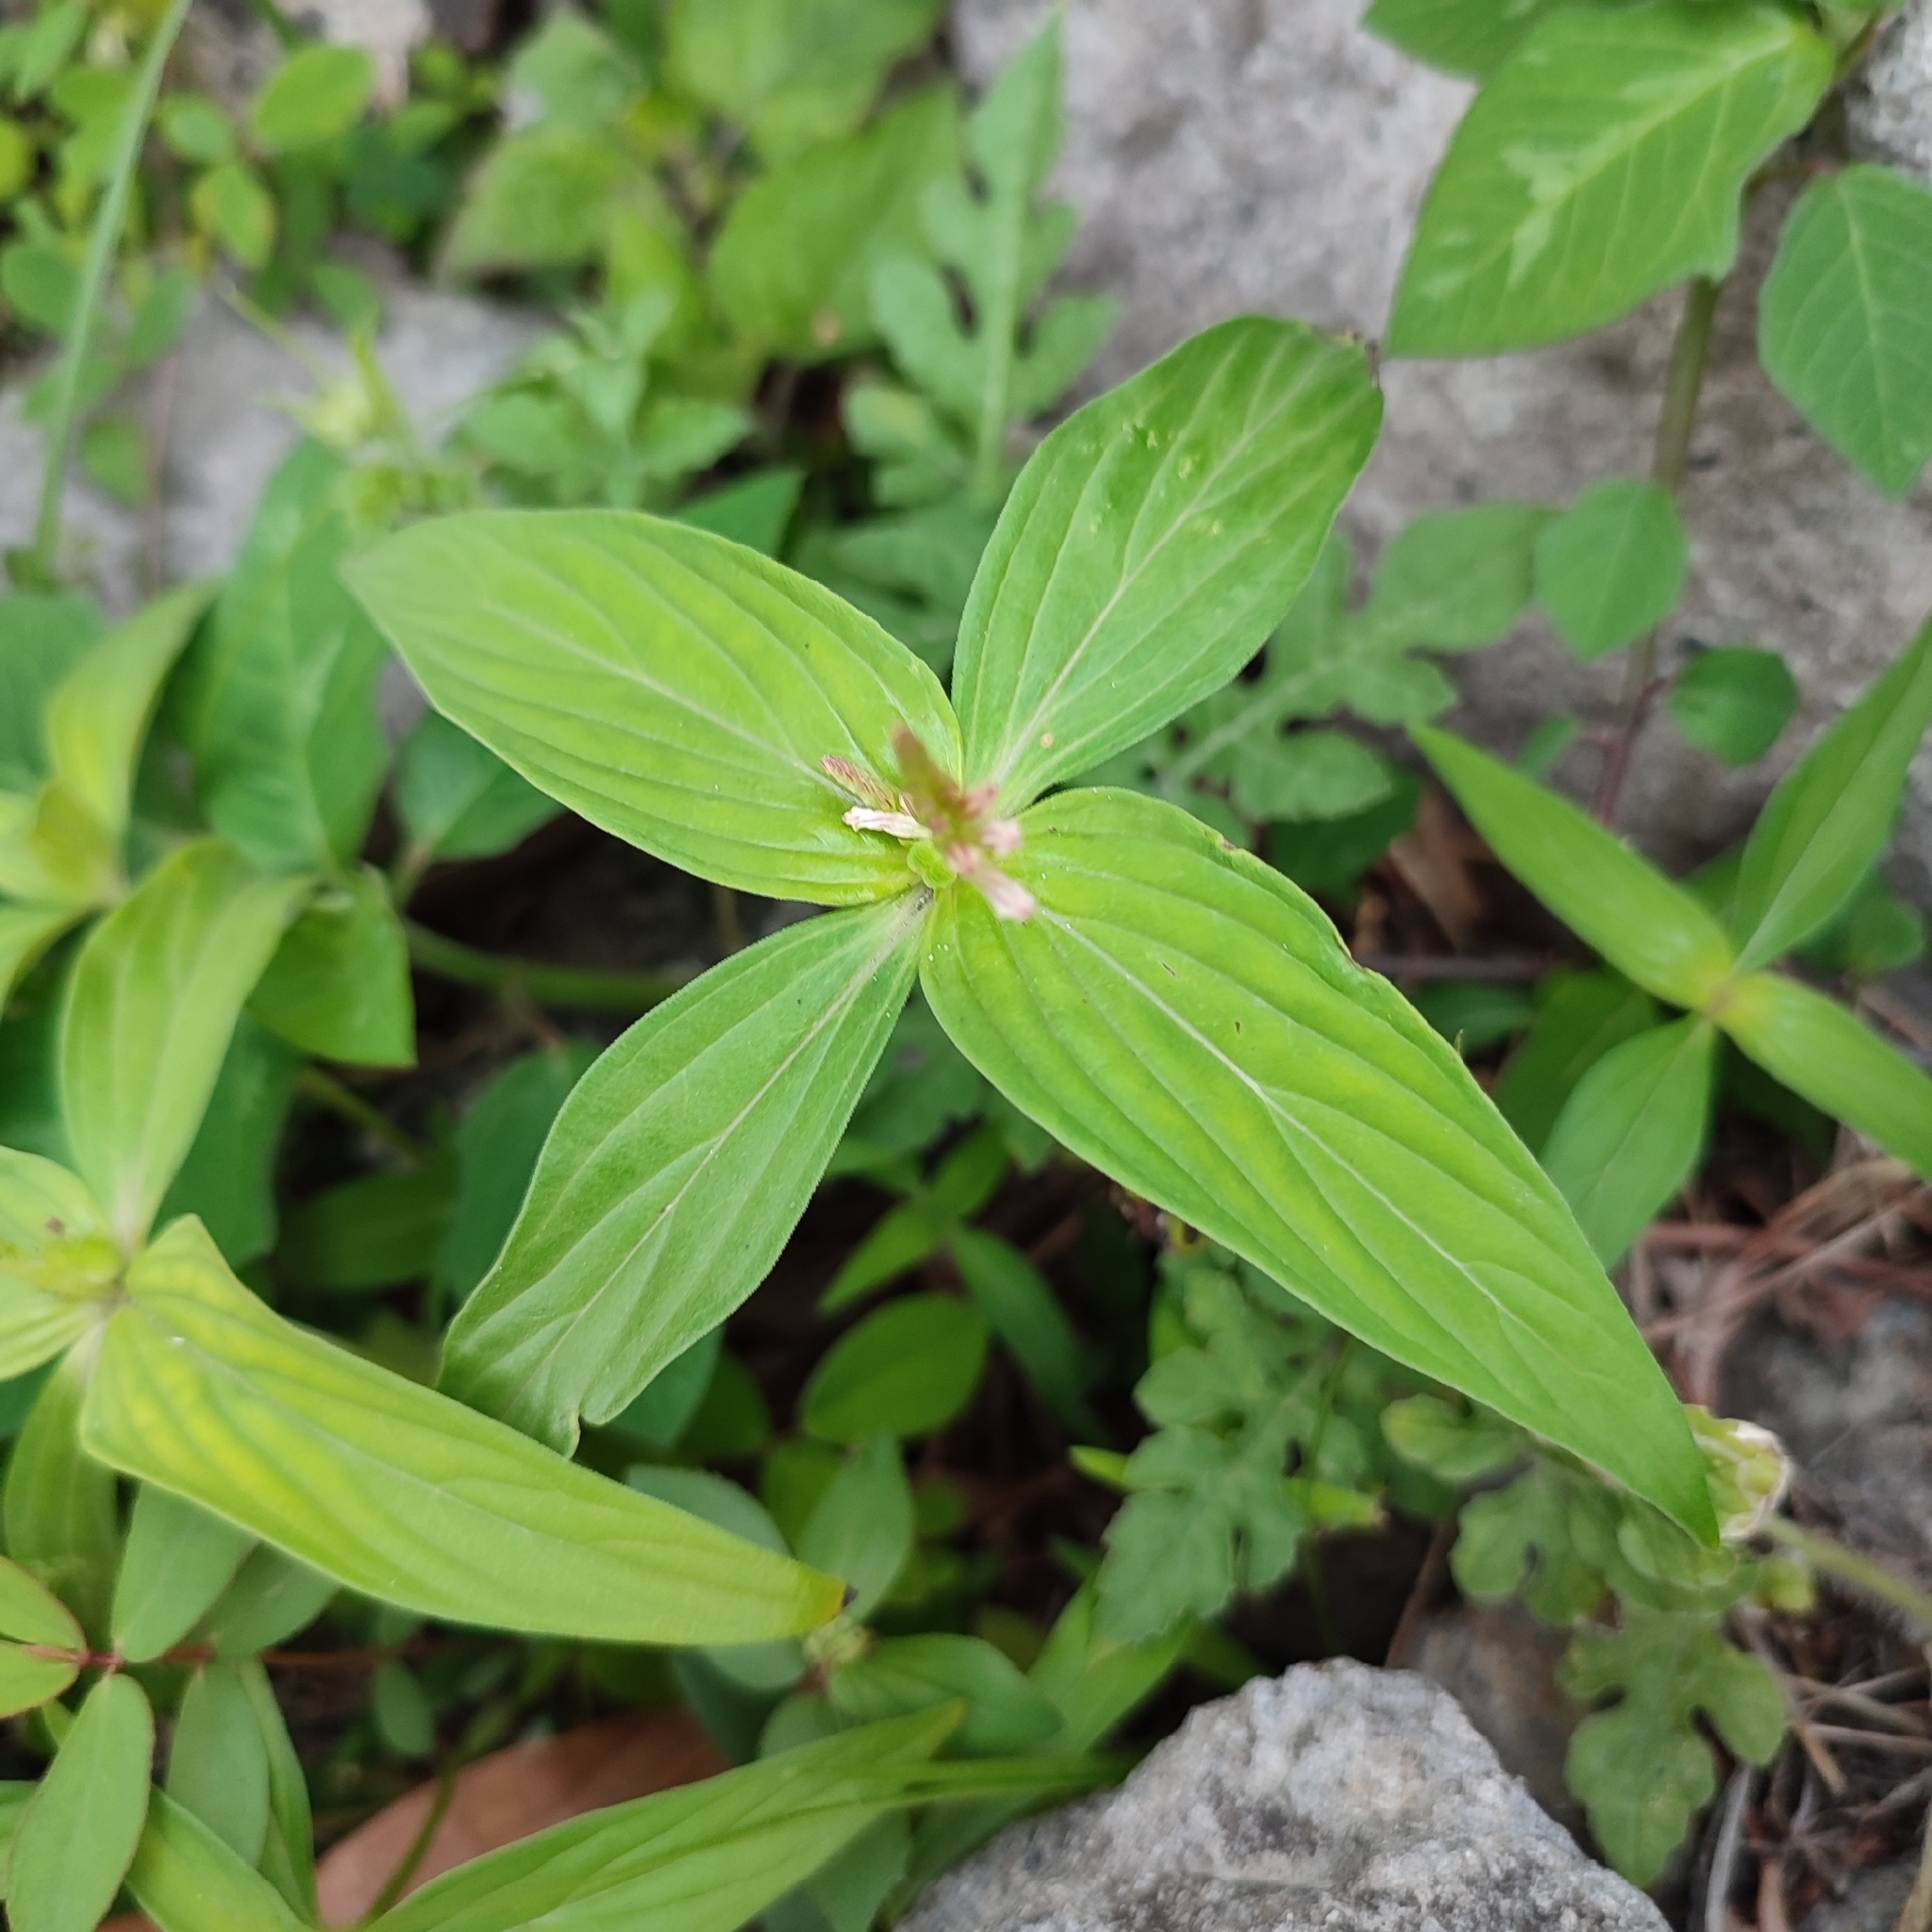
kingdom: Plantae
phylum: Tracheophyta
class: Magnoliopsida
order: Gentianales
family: Loganiaceae
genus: Spigelia
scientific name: Spigelia anthelmia
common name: West indian-pink
